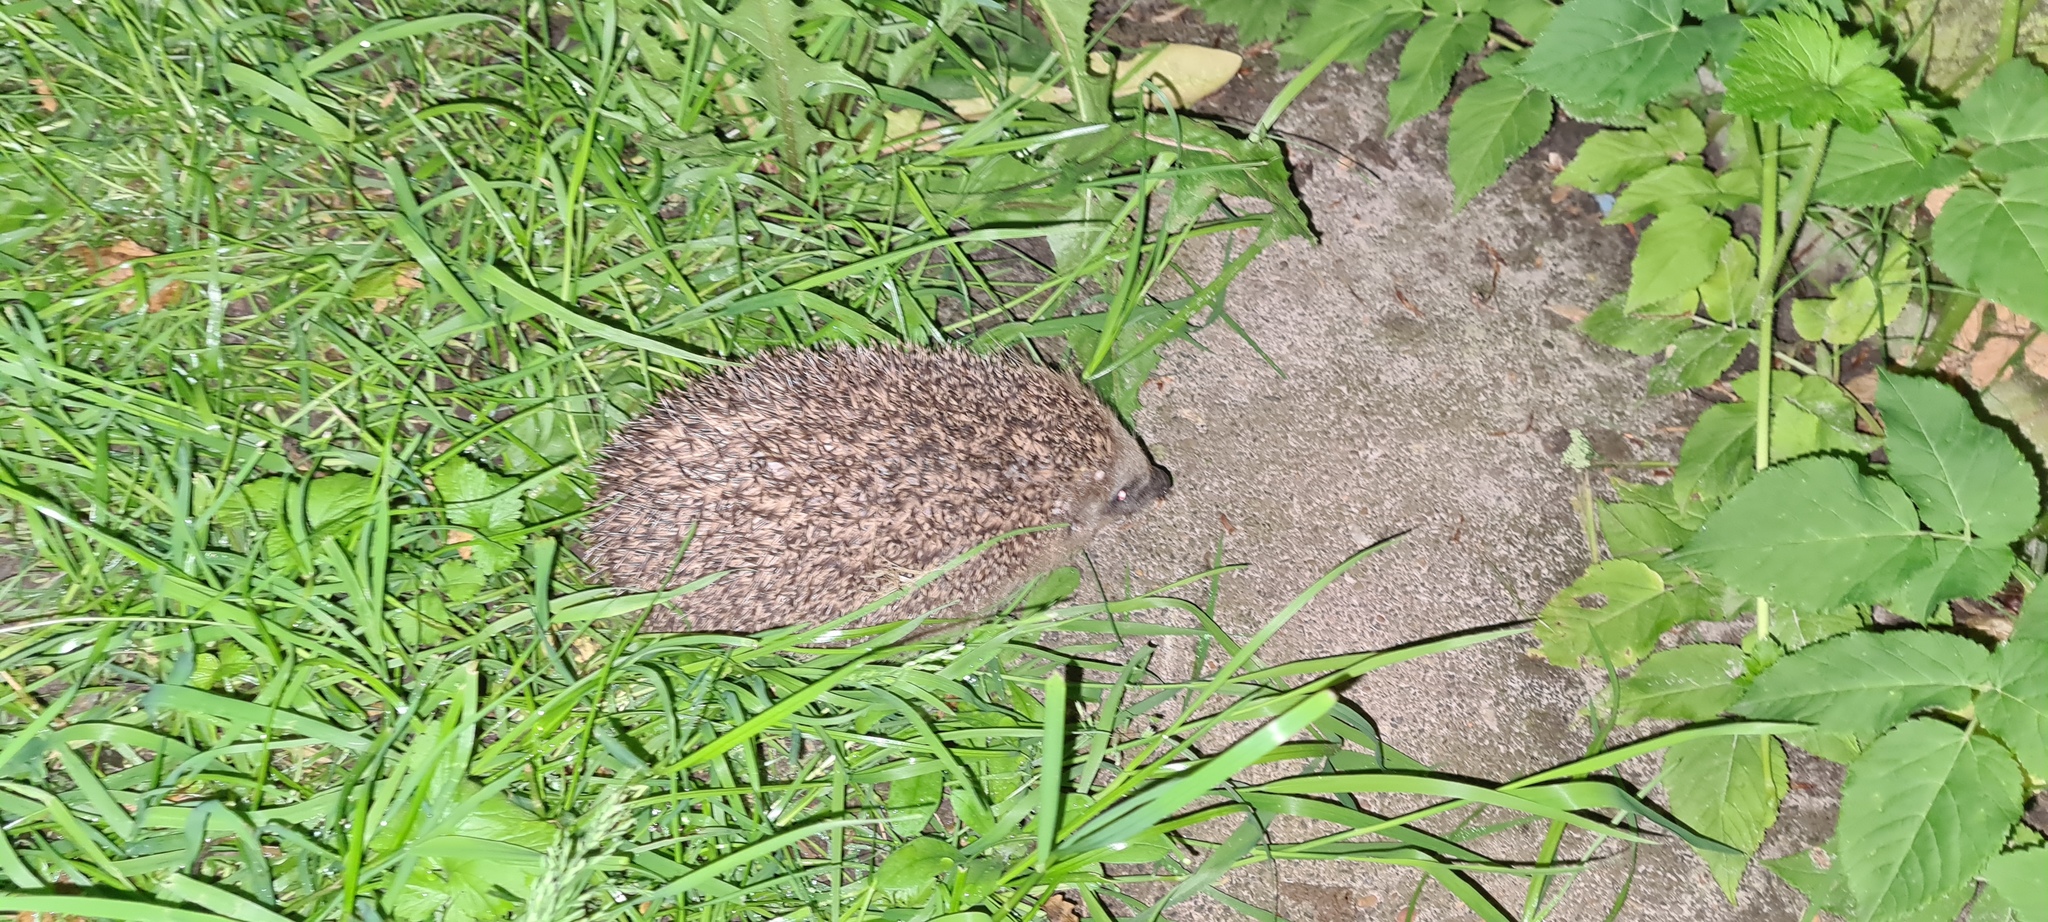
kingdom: Animalia
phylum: Chordata
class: Mammalia
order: Erinaceomorpha
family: Erinaceidae
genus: Erinaceus
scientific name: Erinaceus europaeus
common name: West european hedgehog
